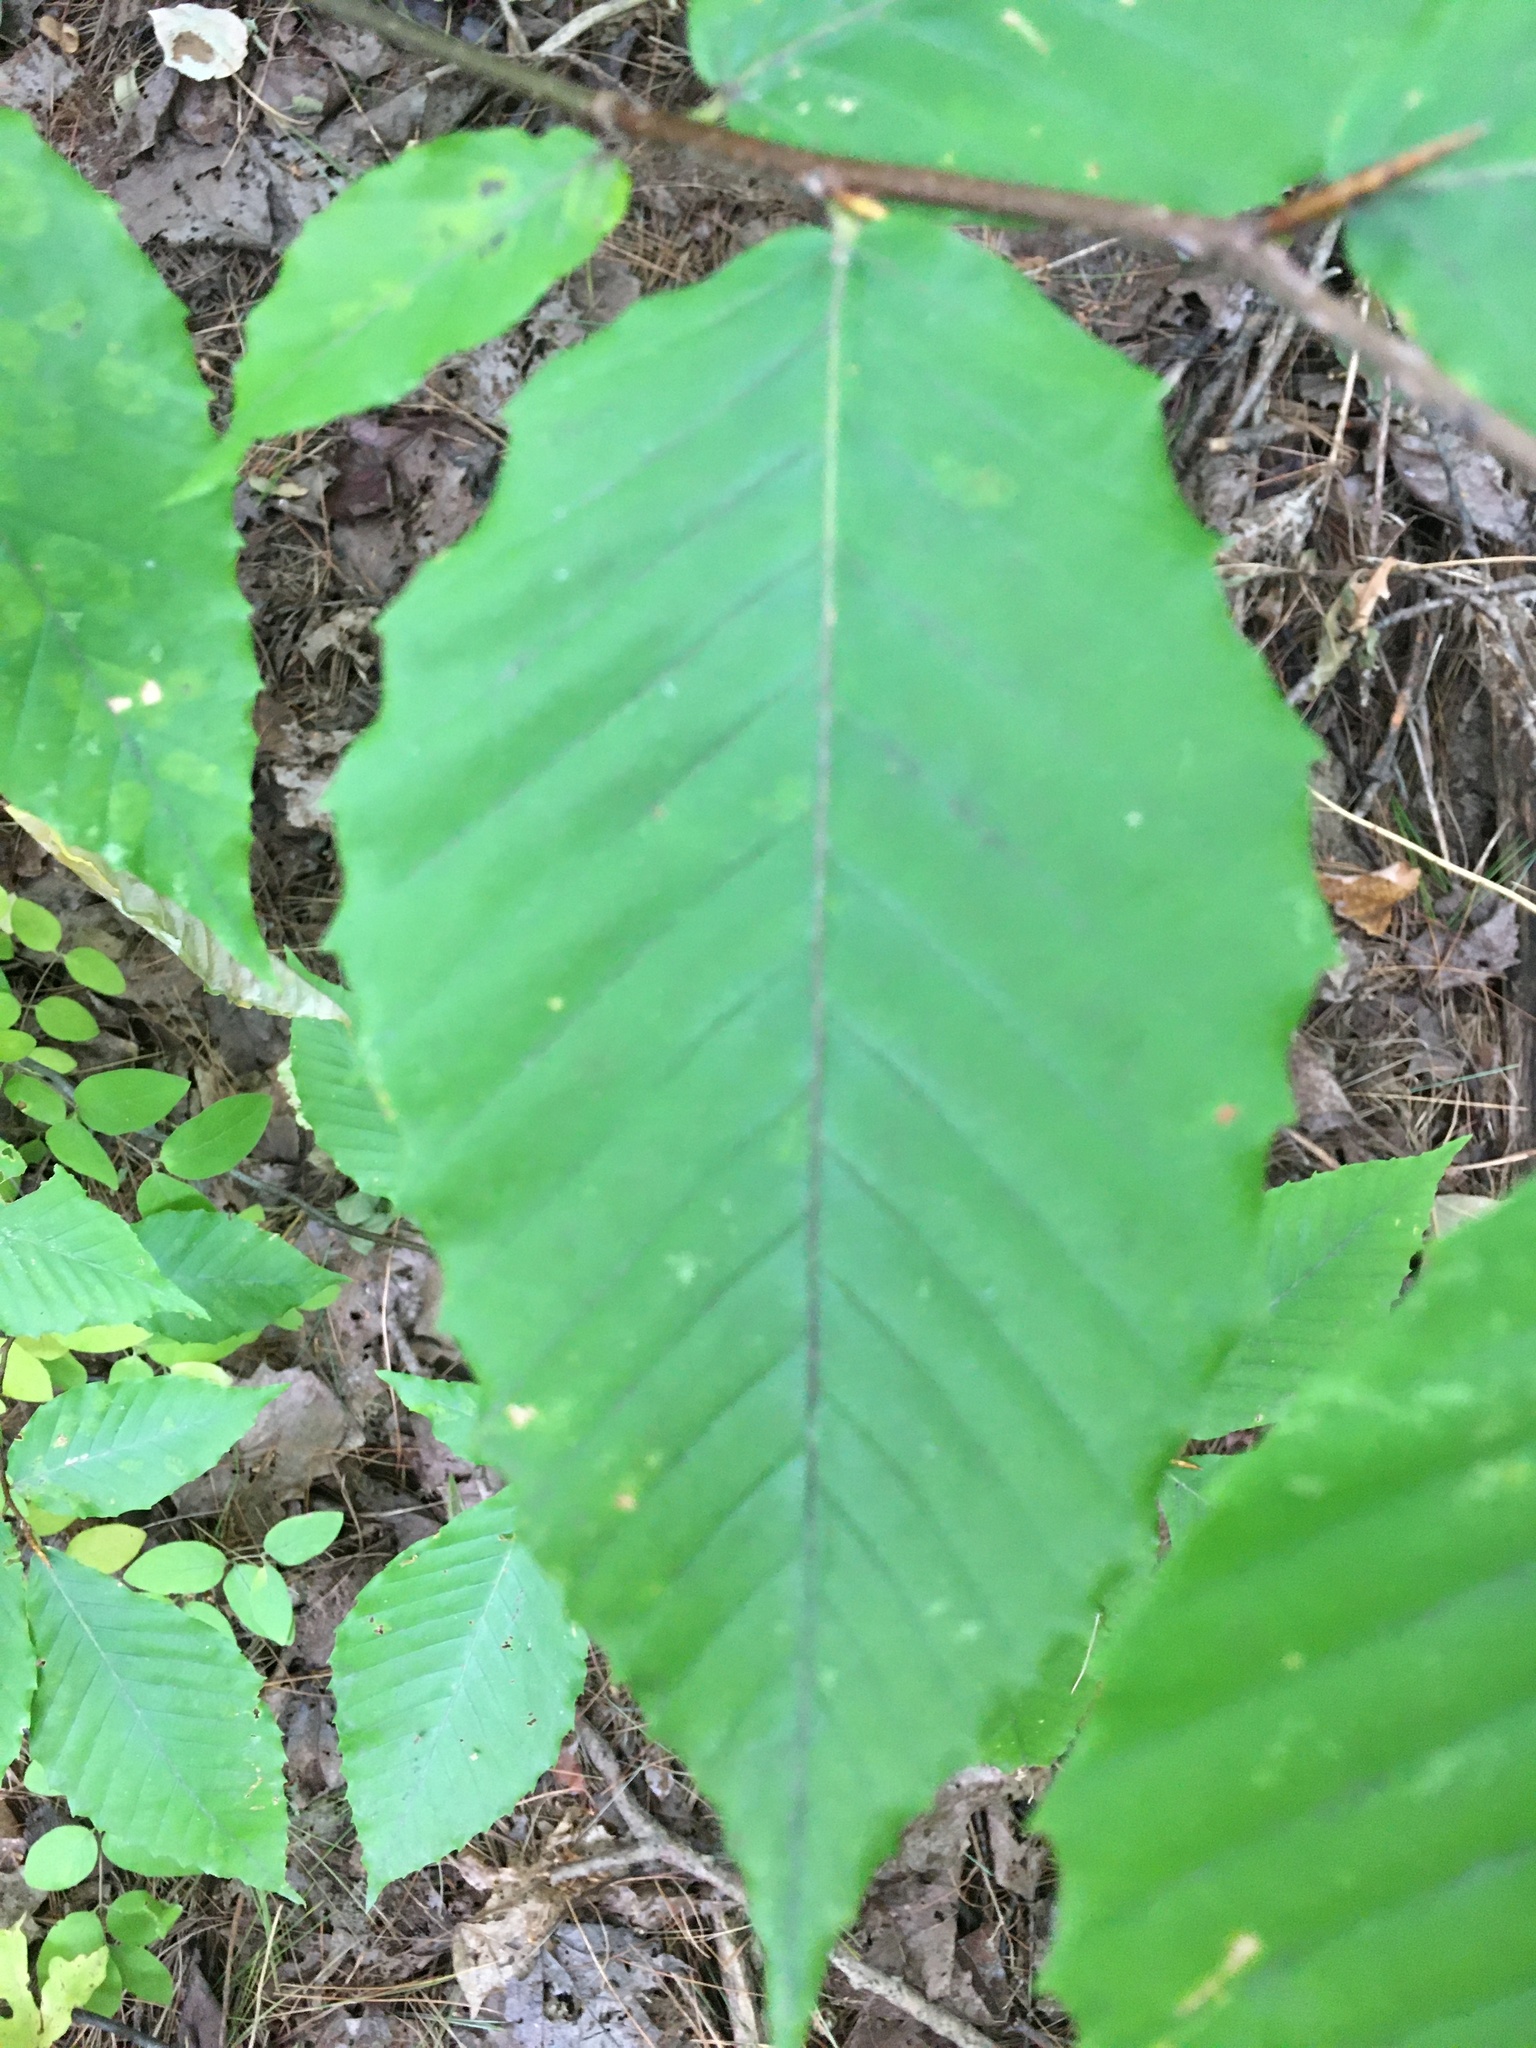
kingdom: Plantae
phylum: Tracheophyta
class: Magnoliopsida
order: Fagales
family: Fagaceae
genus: Fagus
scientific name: Fagus grandifolia
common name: American beech
